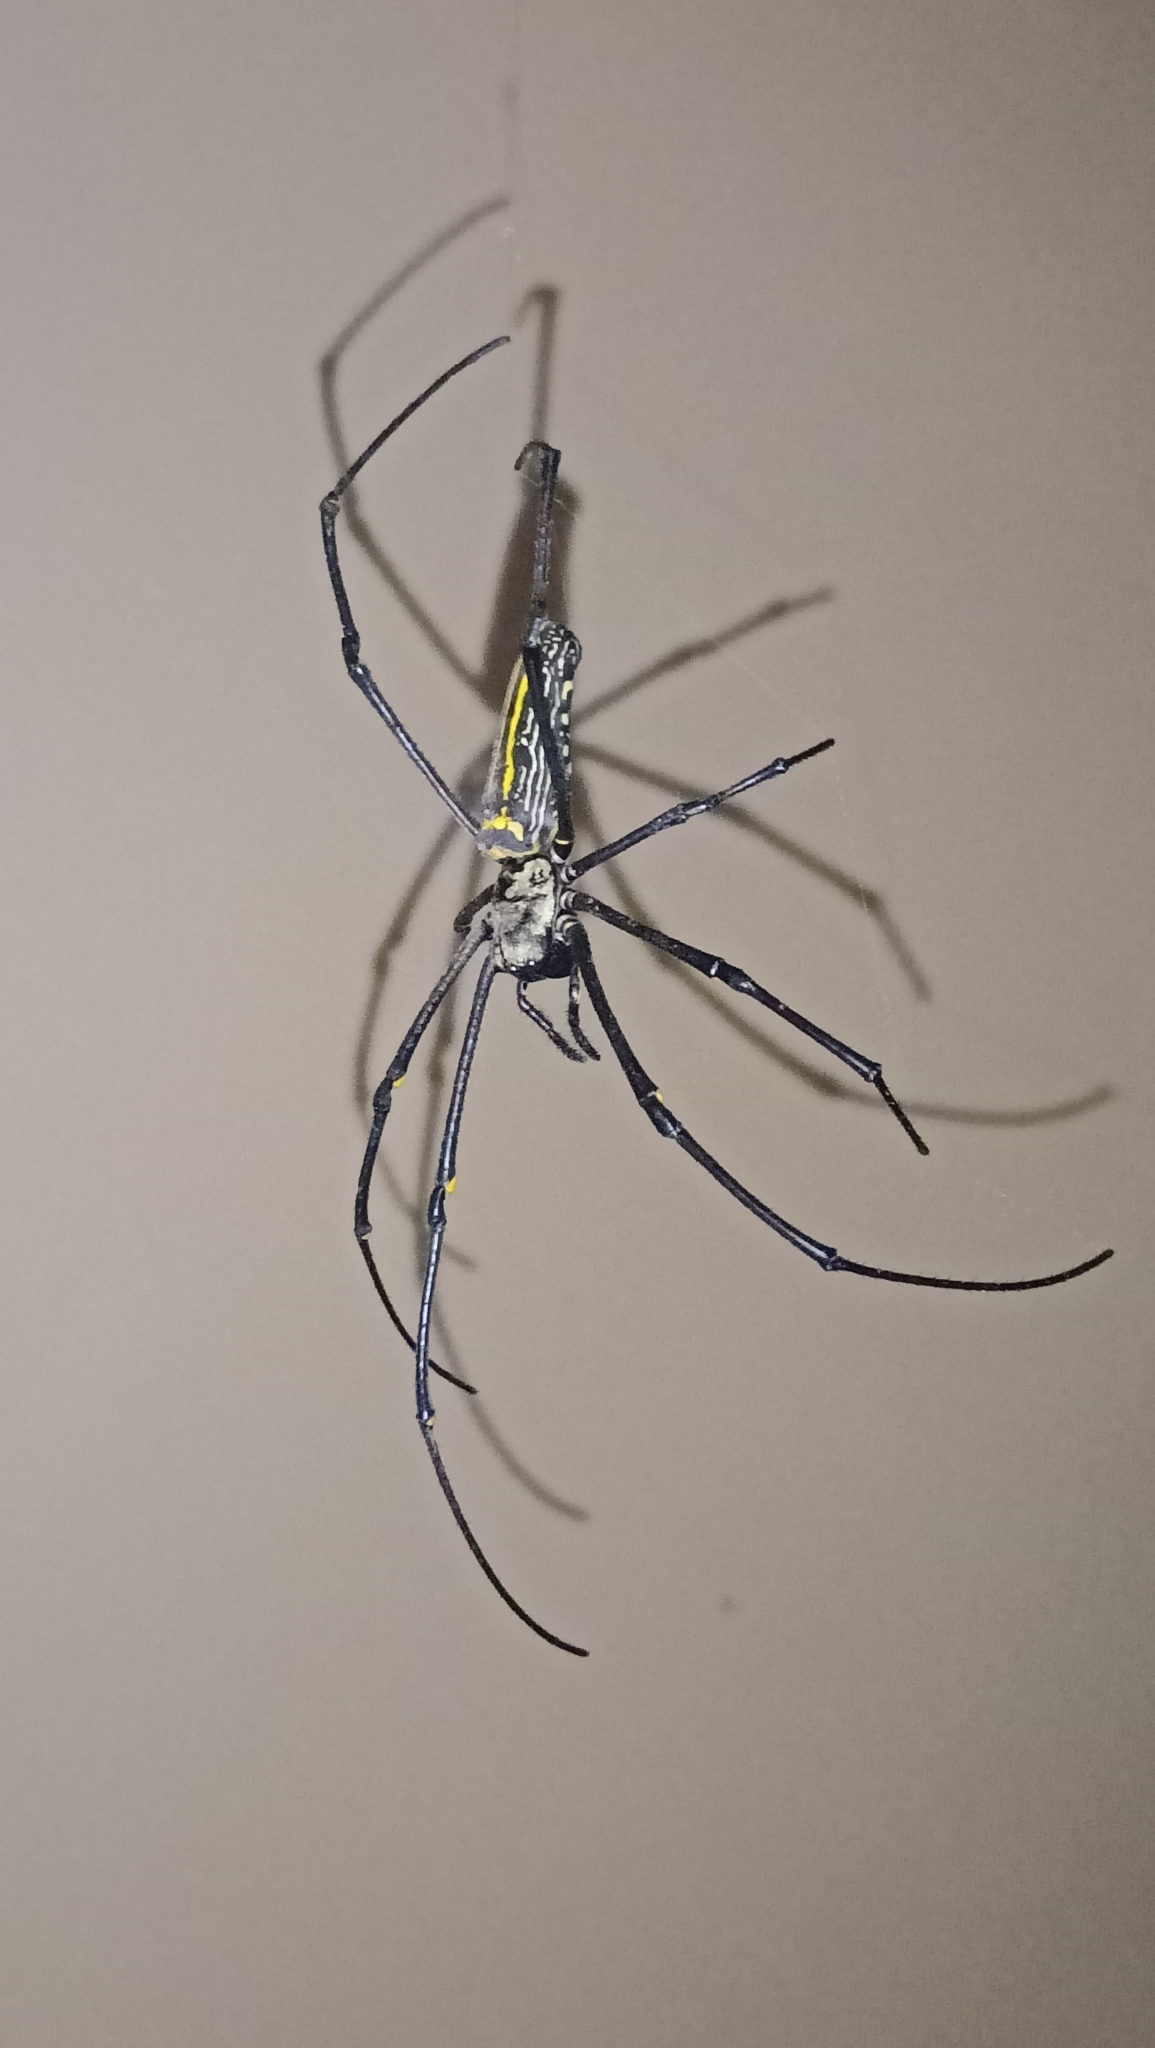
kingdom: Animalia
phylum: Arthropoda
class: Arachnida
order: Araneae
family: Araneidae
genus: Nephila
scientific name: Nephila pilipes
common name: Giant golden orb weaver
